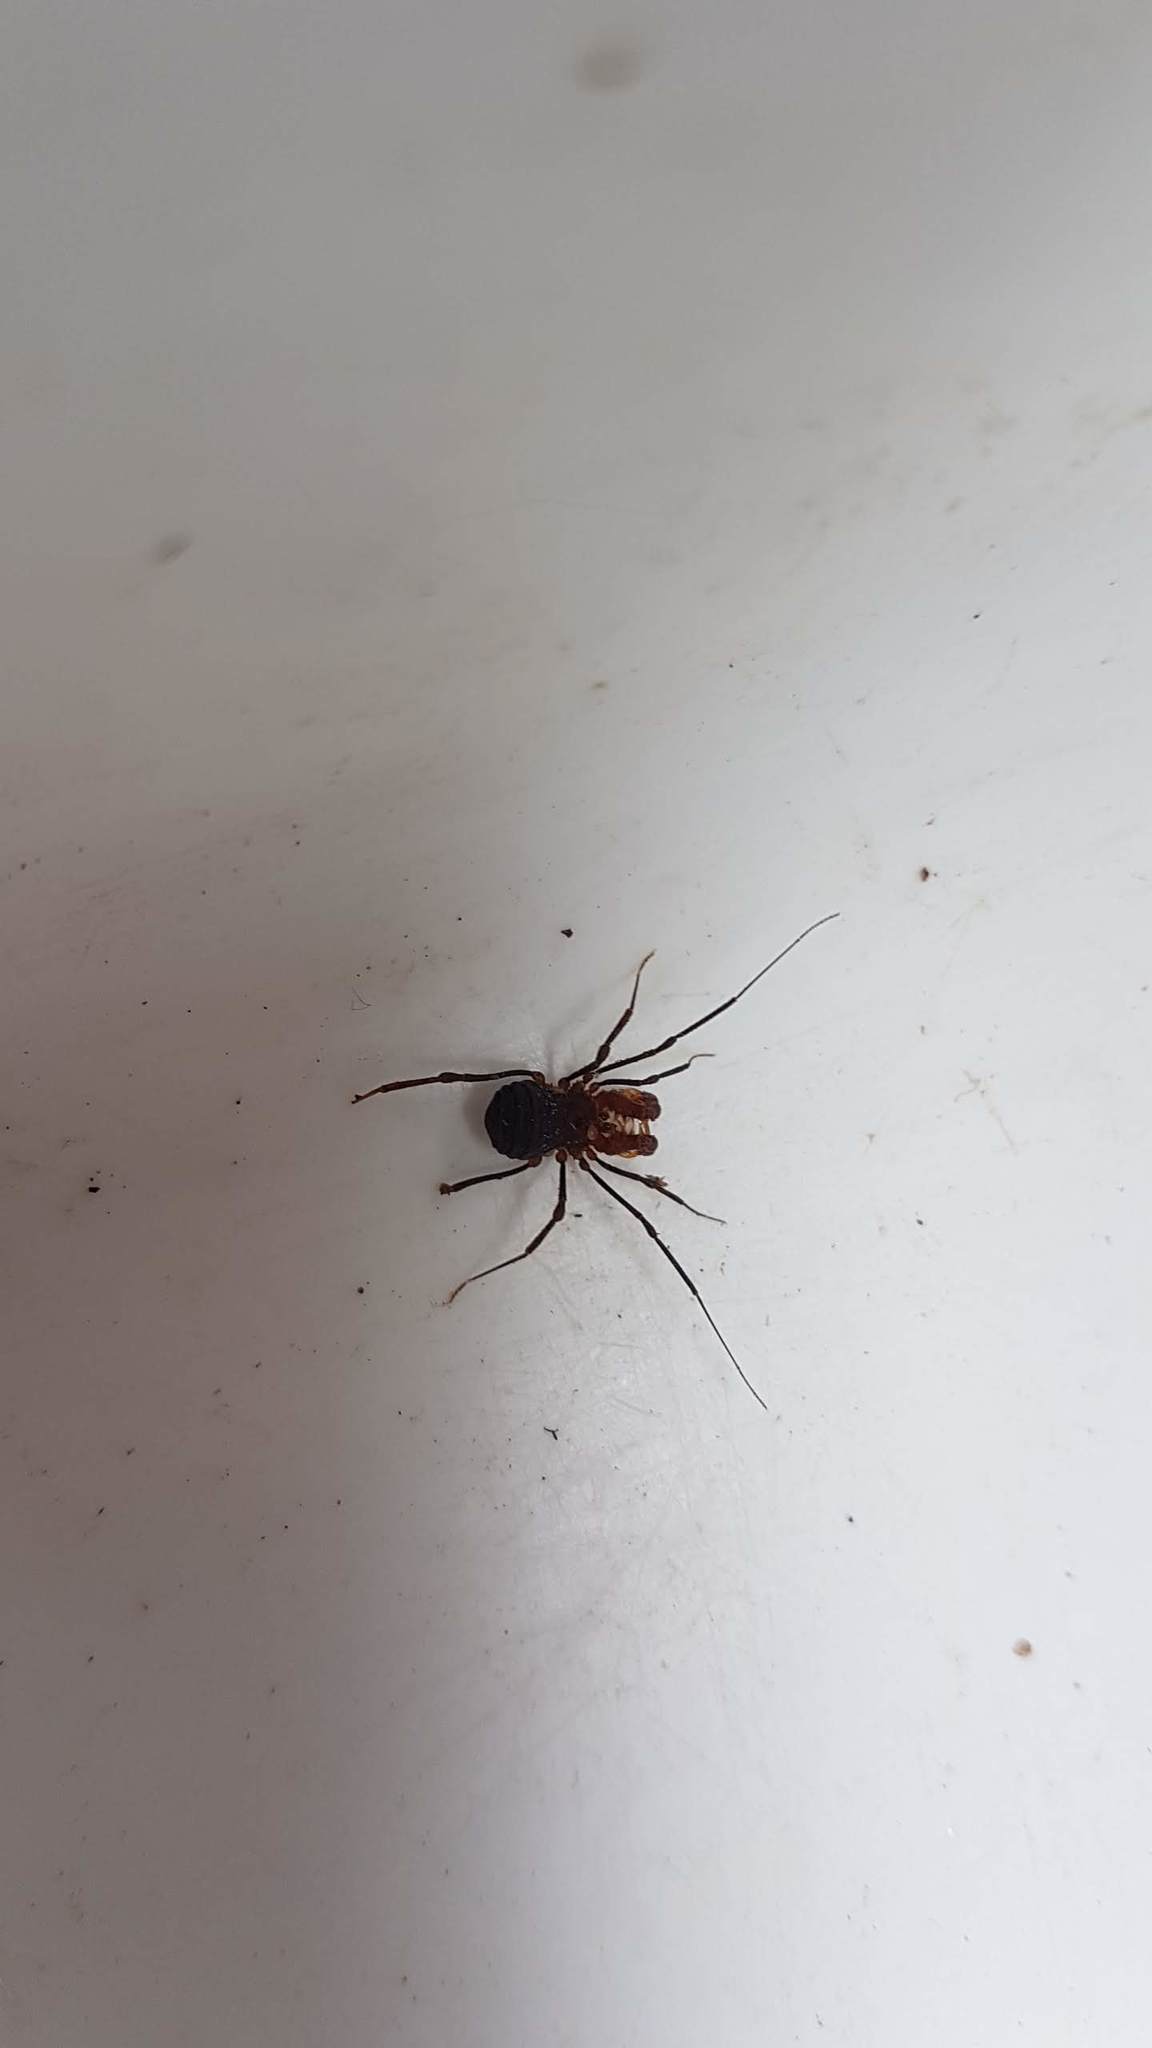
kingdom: Animalia
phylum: Arthropoda
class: Arachnida
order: Opiliones
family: Triaenonychidae
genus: Sorensenella
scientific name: Sorensenella prehensor
